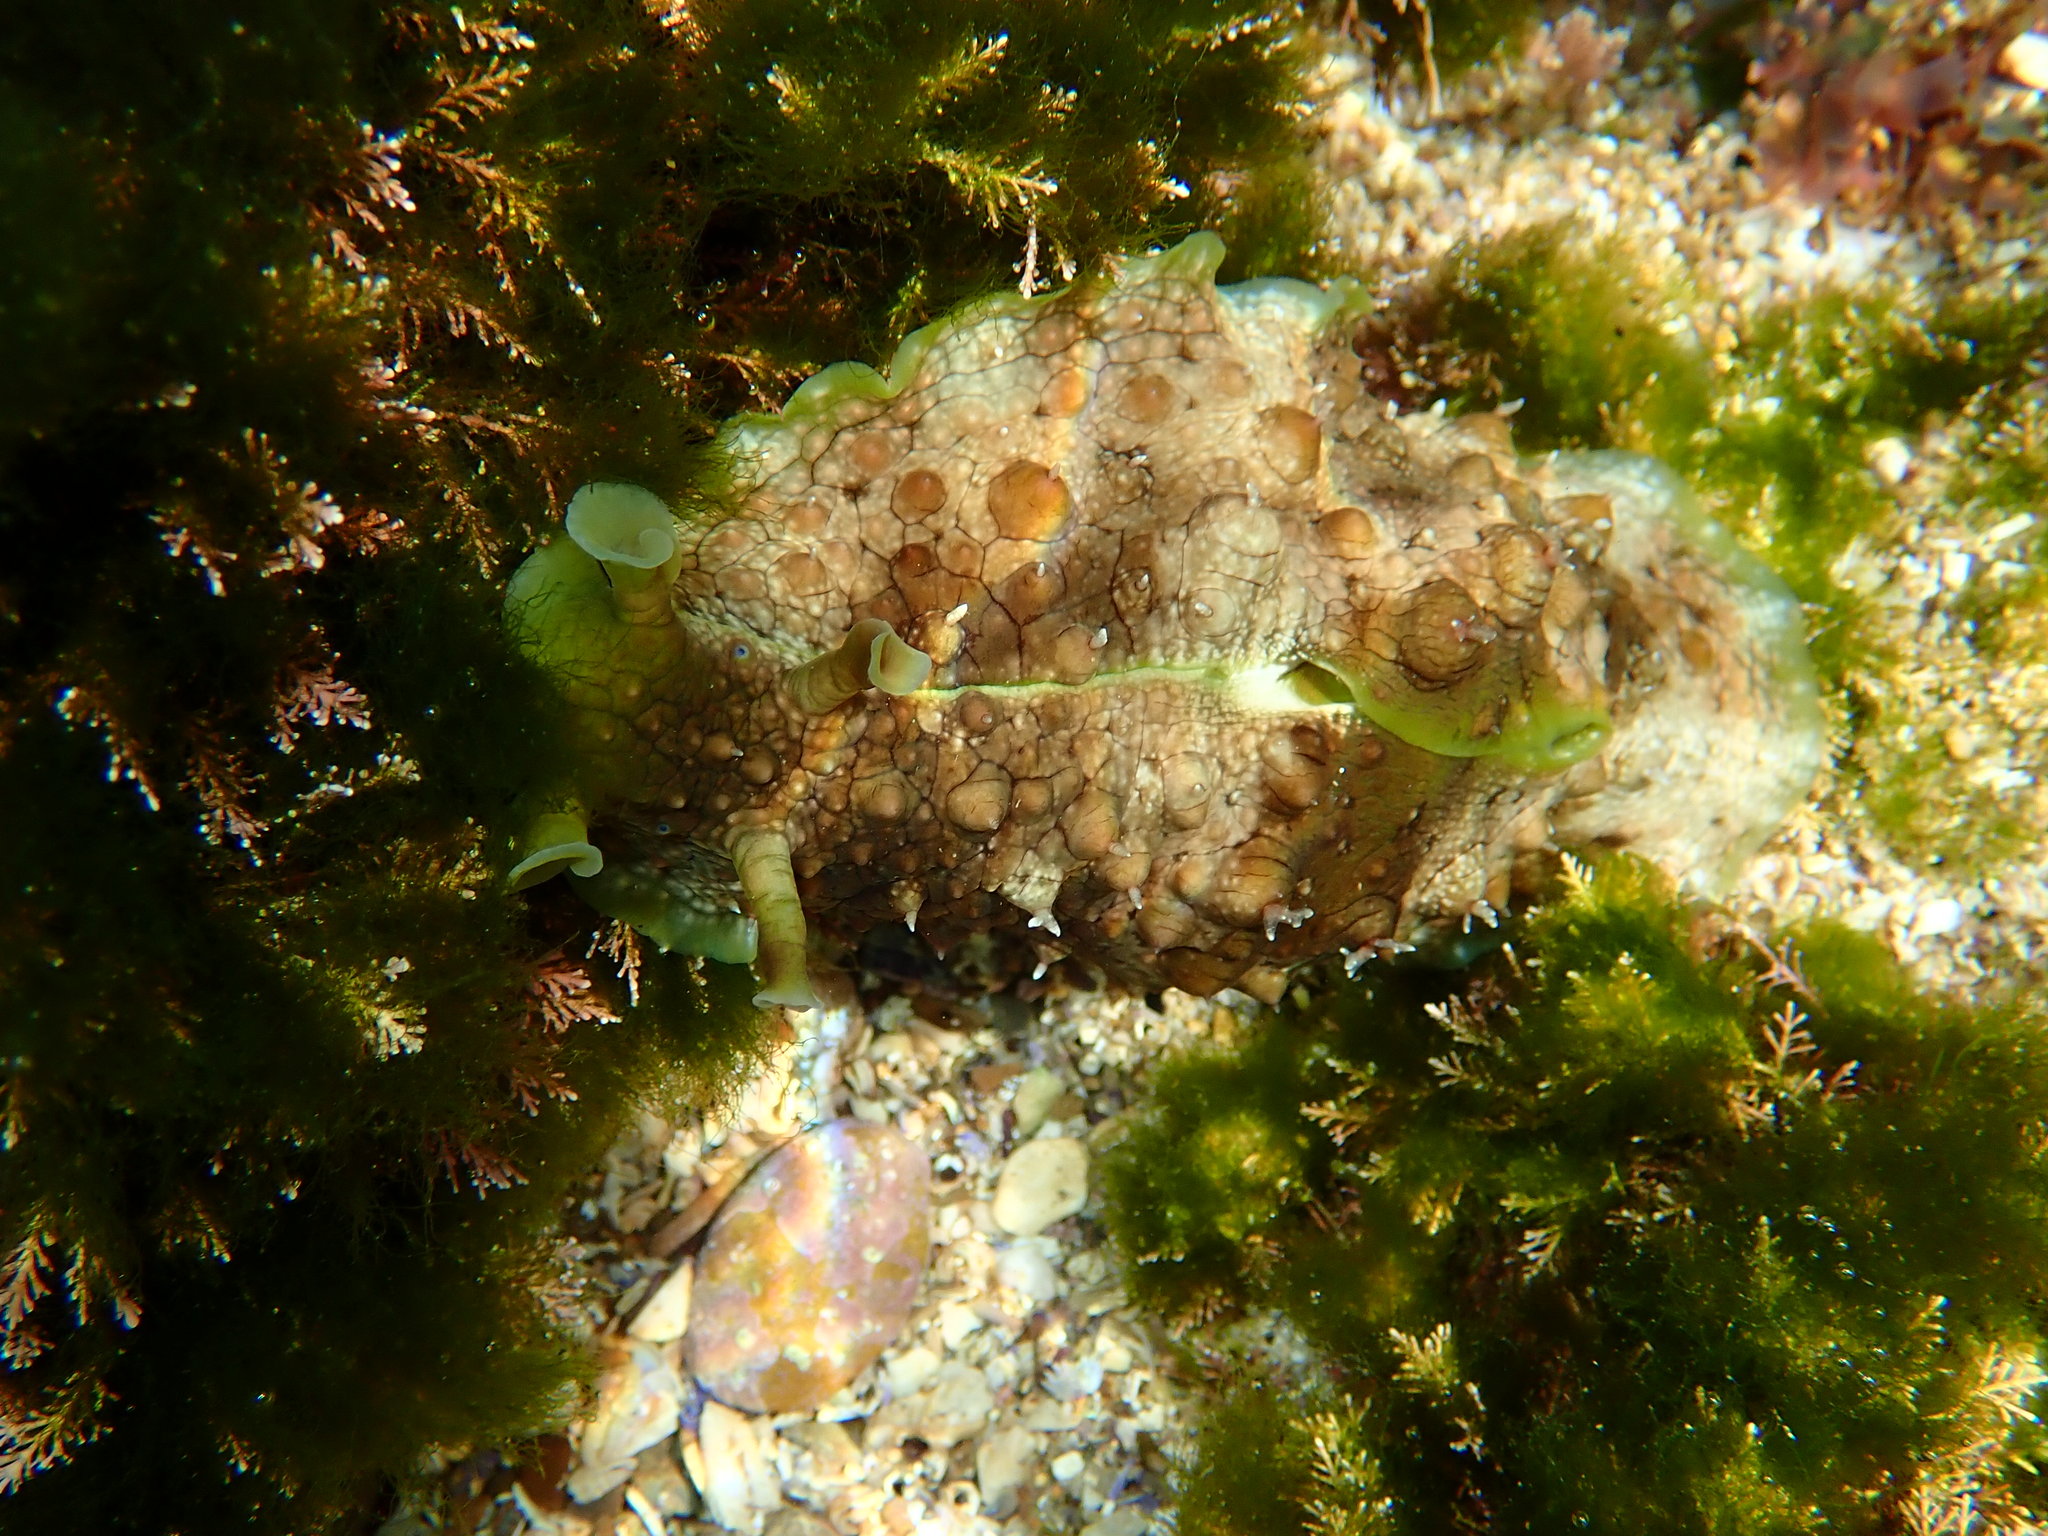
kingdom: Animalia
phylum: Mollusca
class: Gastropoda
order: Aplysiida
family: Aplysiidae
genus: Dolabrifera
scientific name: Dolabrifera brazieri
